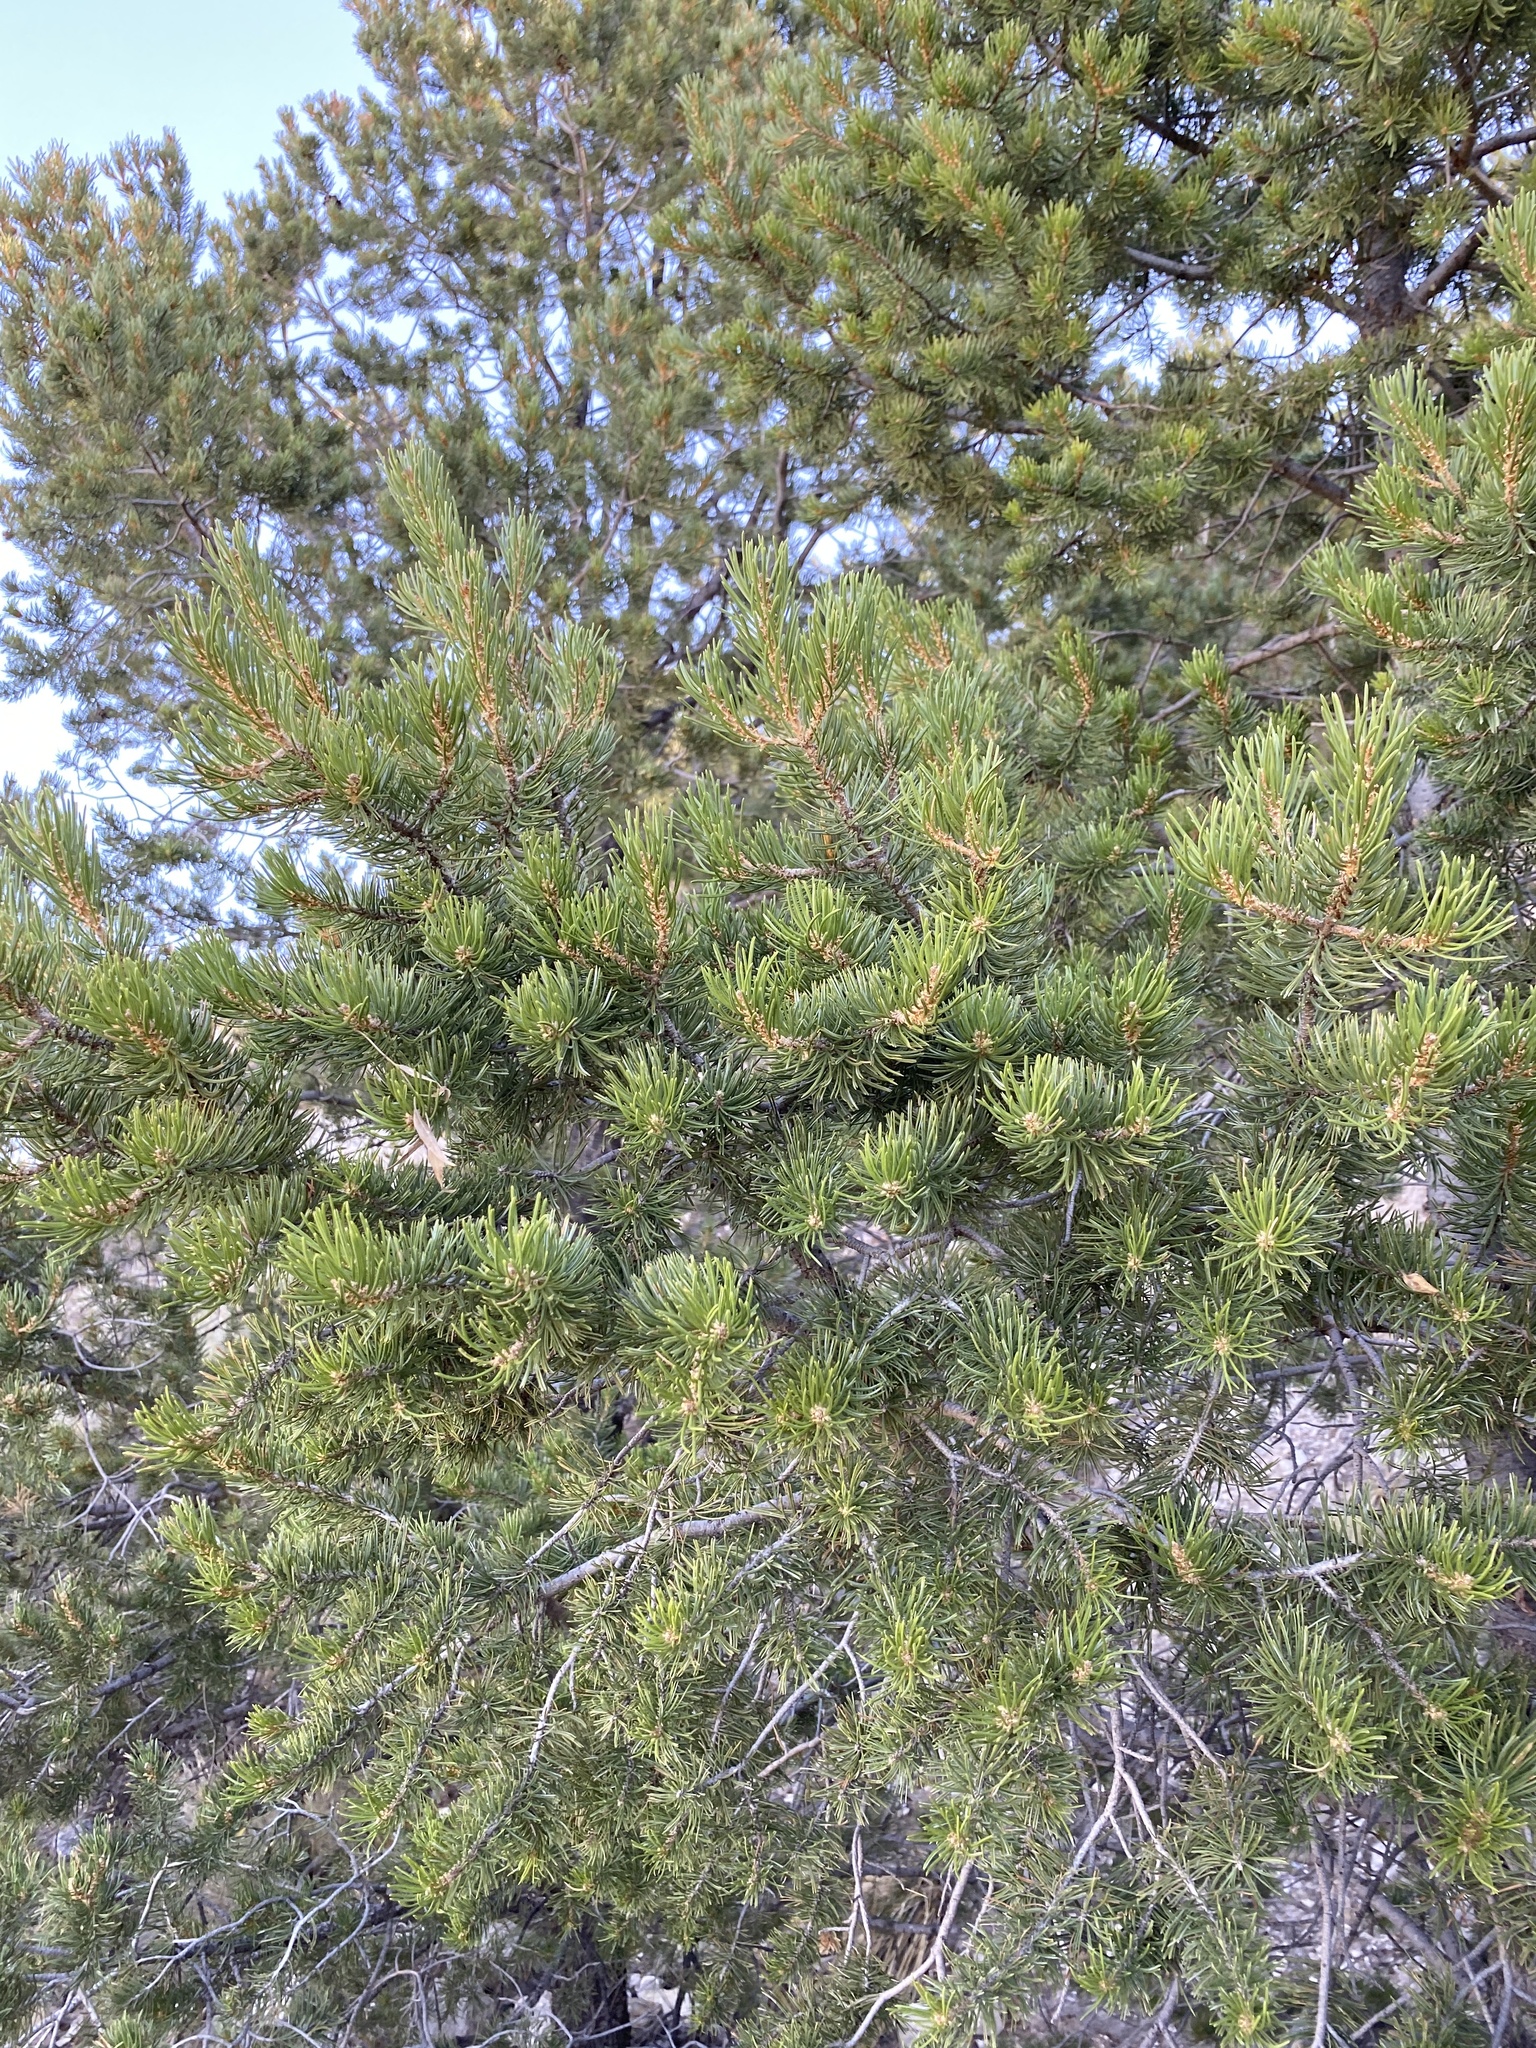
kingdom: Plantae
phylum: Tracheophyta
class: Pinopsida
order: Pinales
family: Pinaceae
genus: Pinus
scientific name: Pinus edulis
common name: Colorado pinyon
